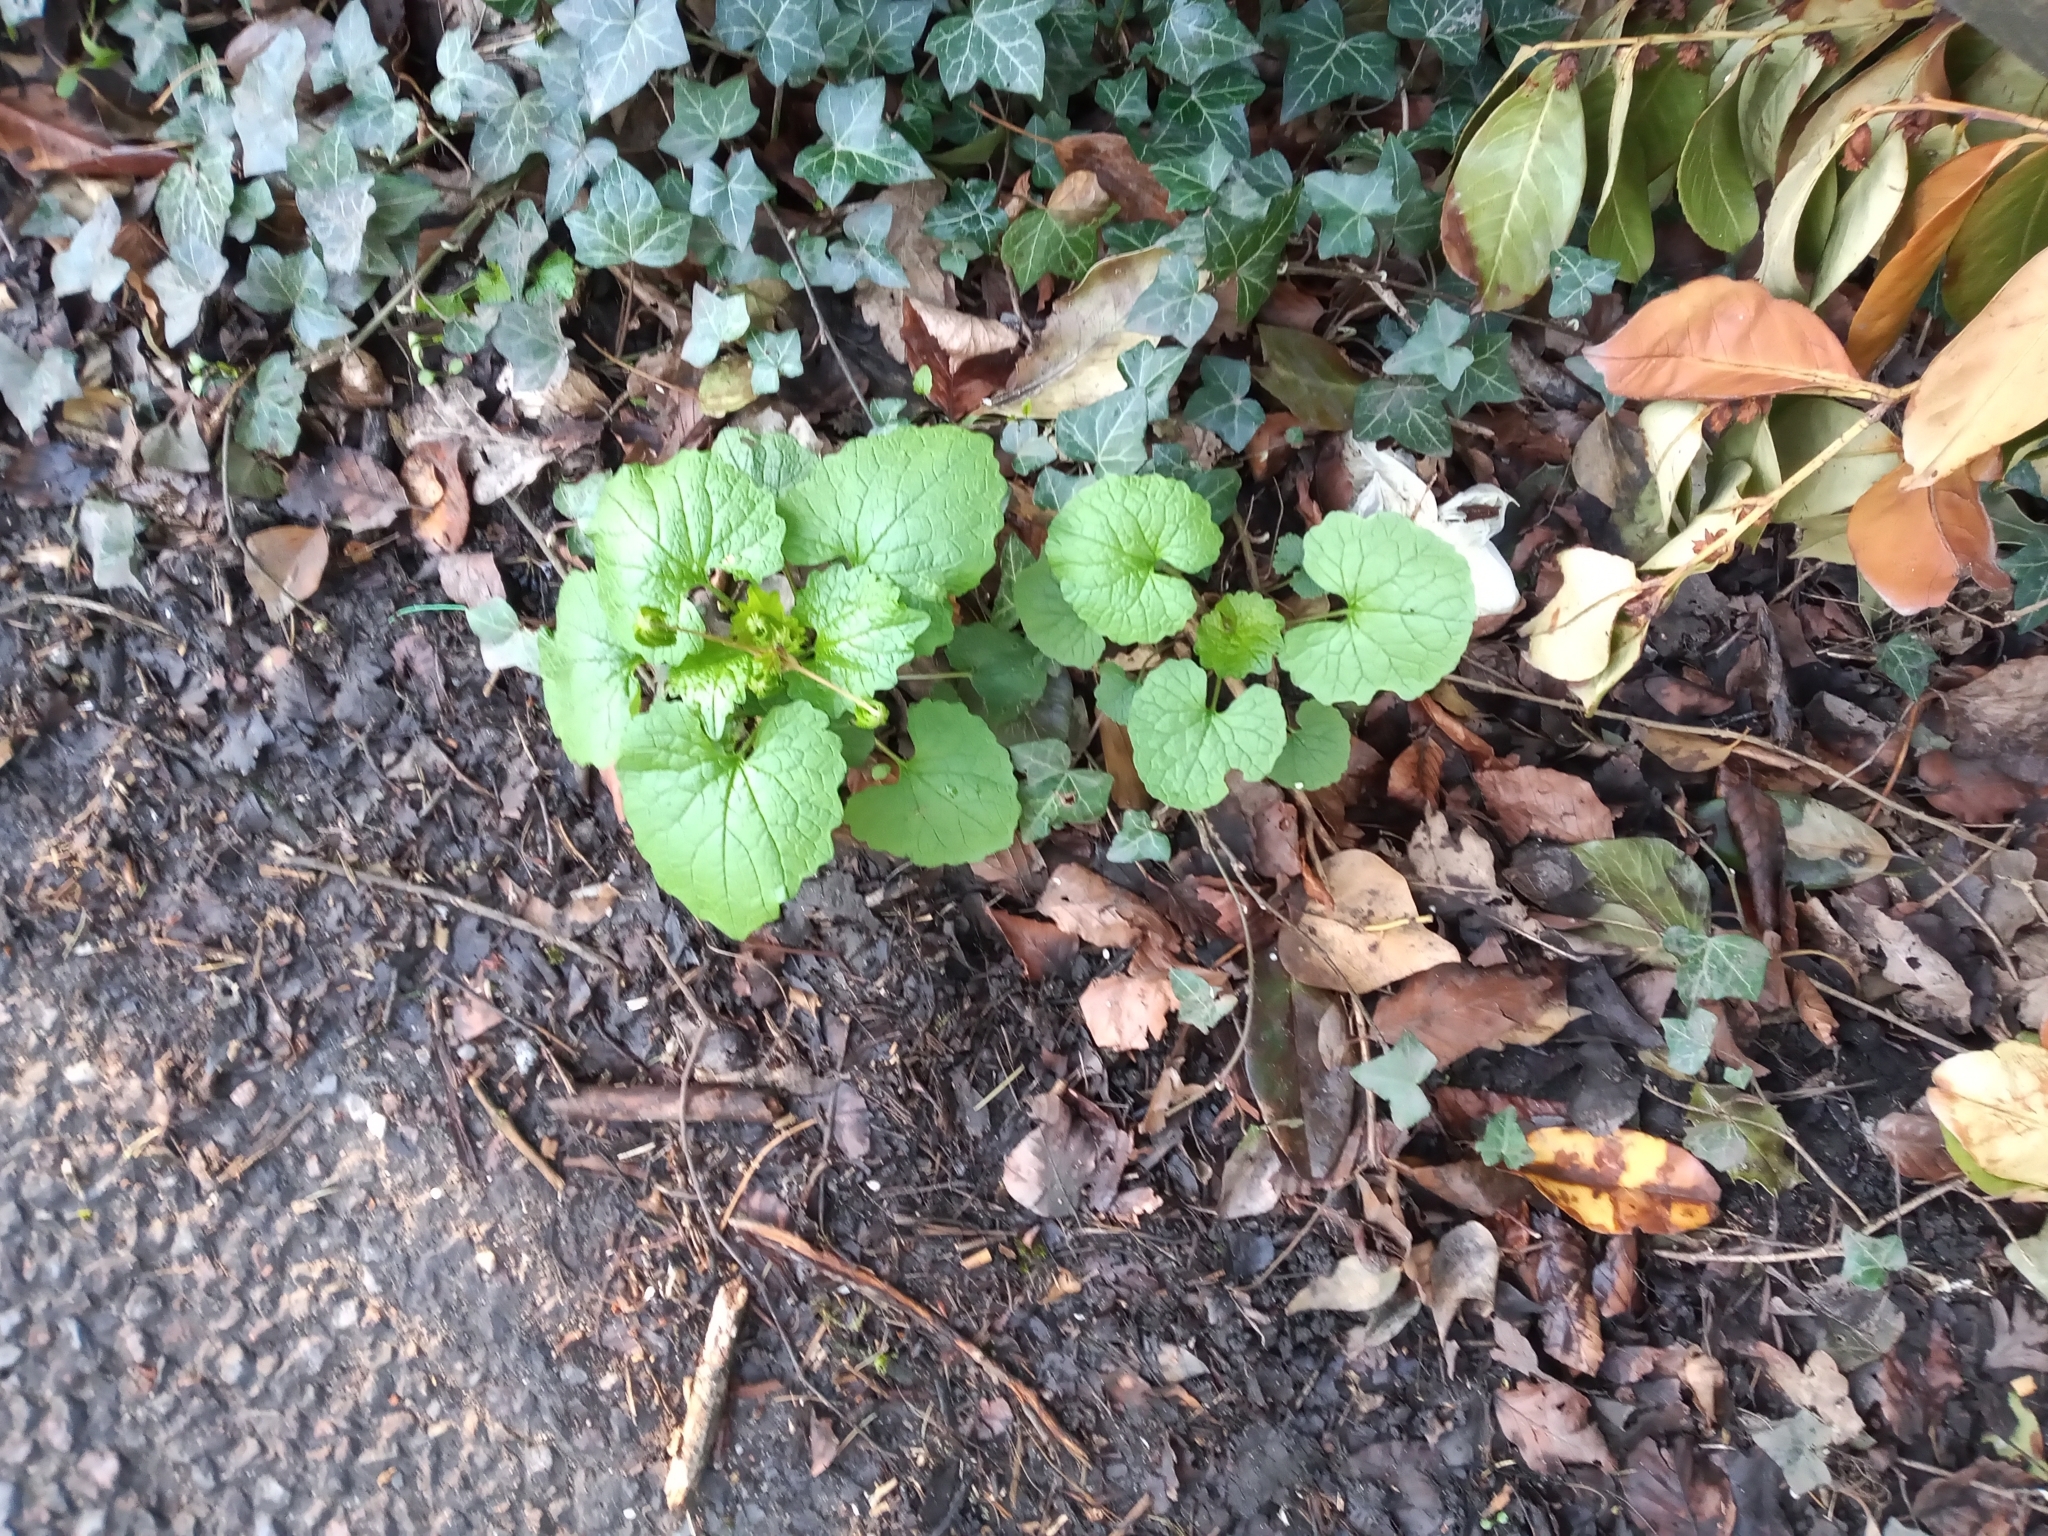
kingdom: Plantae
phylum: Tracheophyta
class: Magnoliopsida
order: Brassicales
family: Brassicaceae
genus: Alliaria
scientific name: Alliaria petiolata
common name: Garlic mustard
